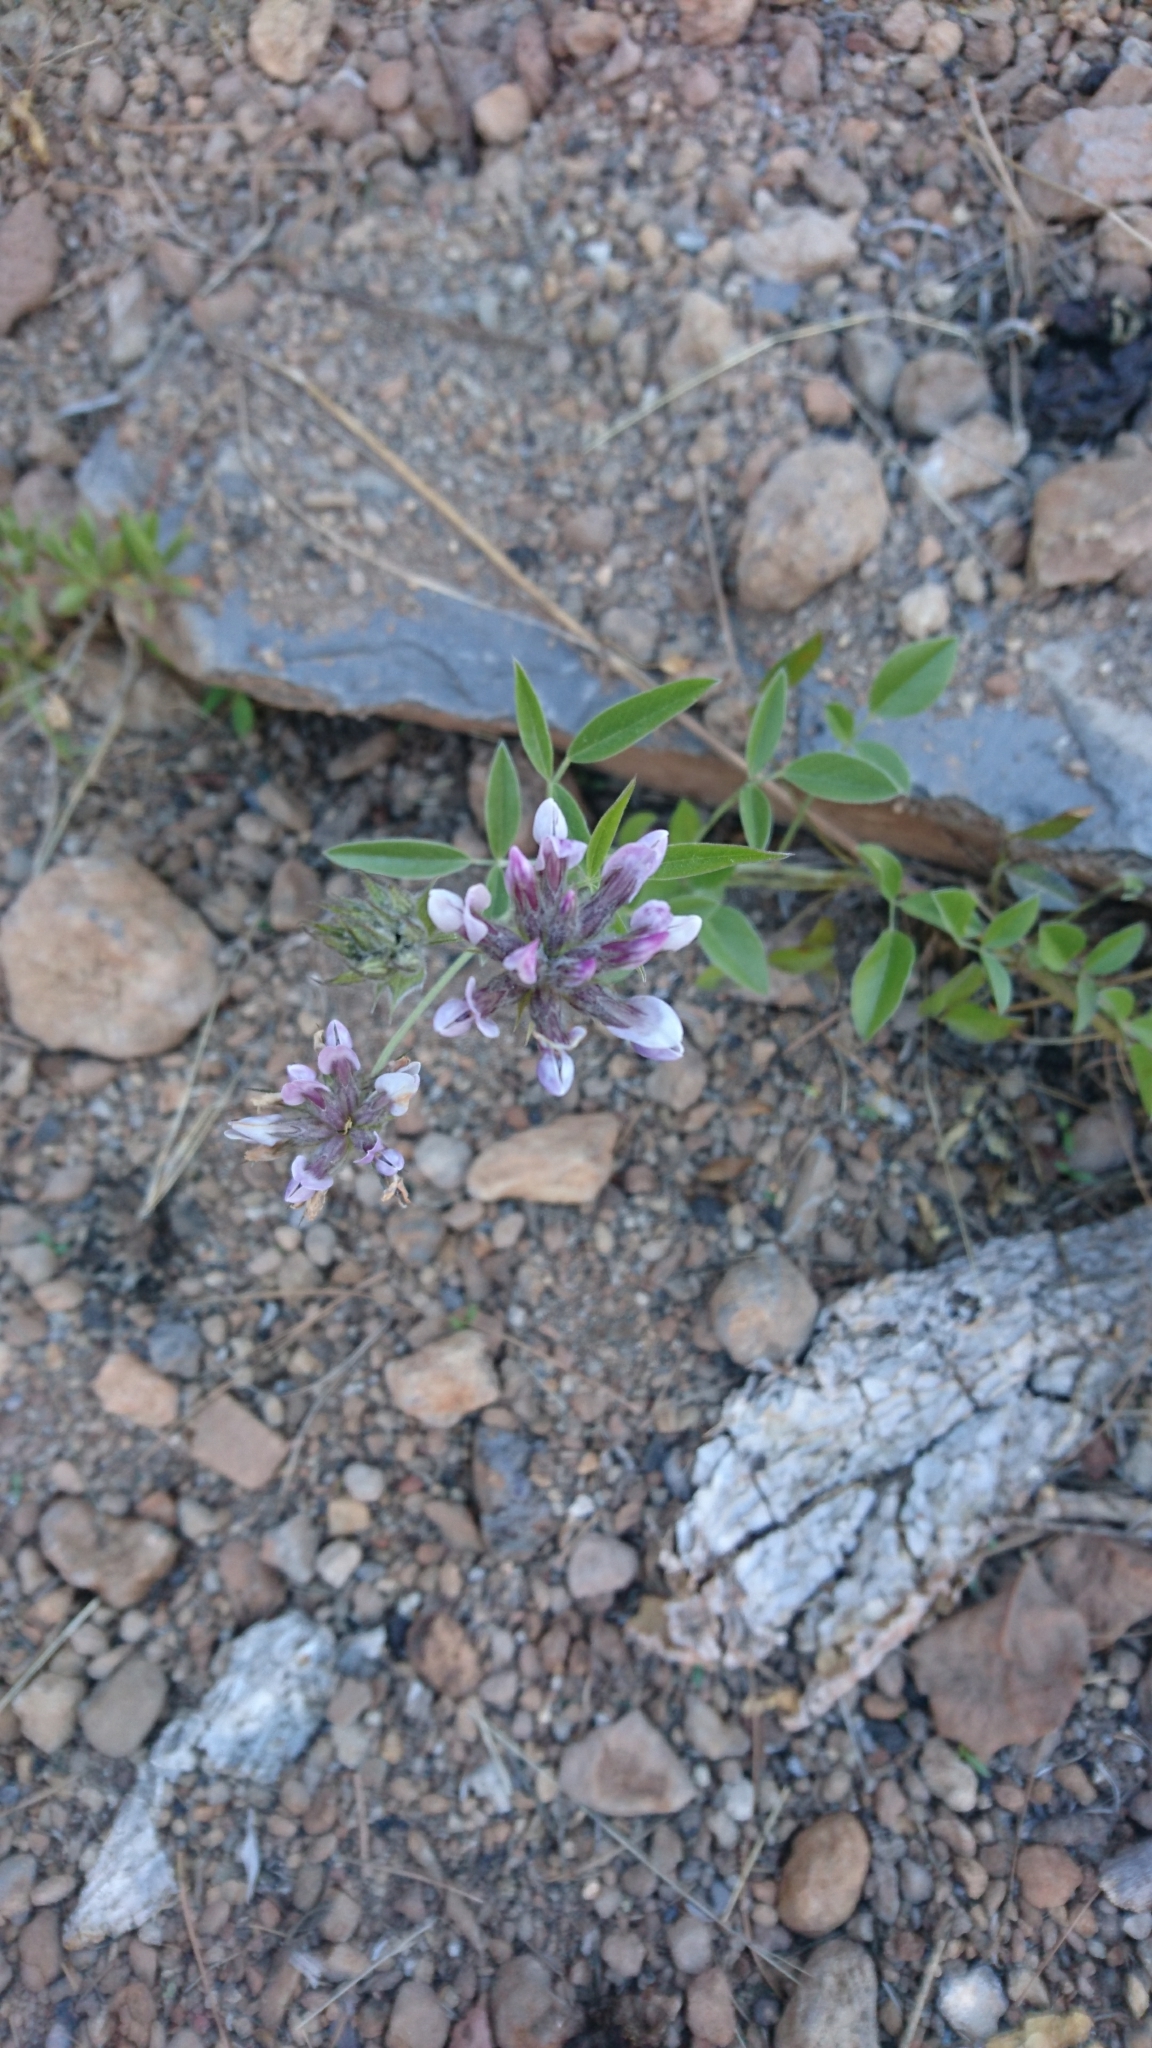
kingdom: Plantae
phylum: Tracheophyta
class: Magnoliopsida
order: Fabales
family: Fabaceae
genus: Bituminaria
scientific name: Bituminaria bituminosa
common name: Arabian pea
